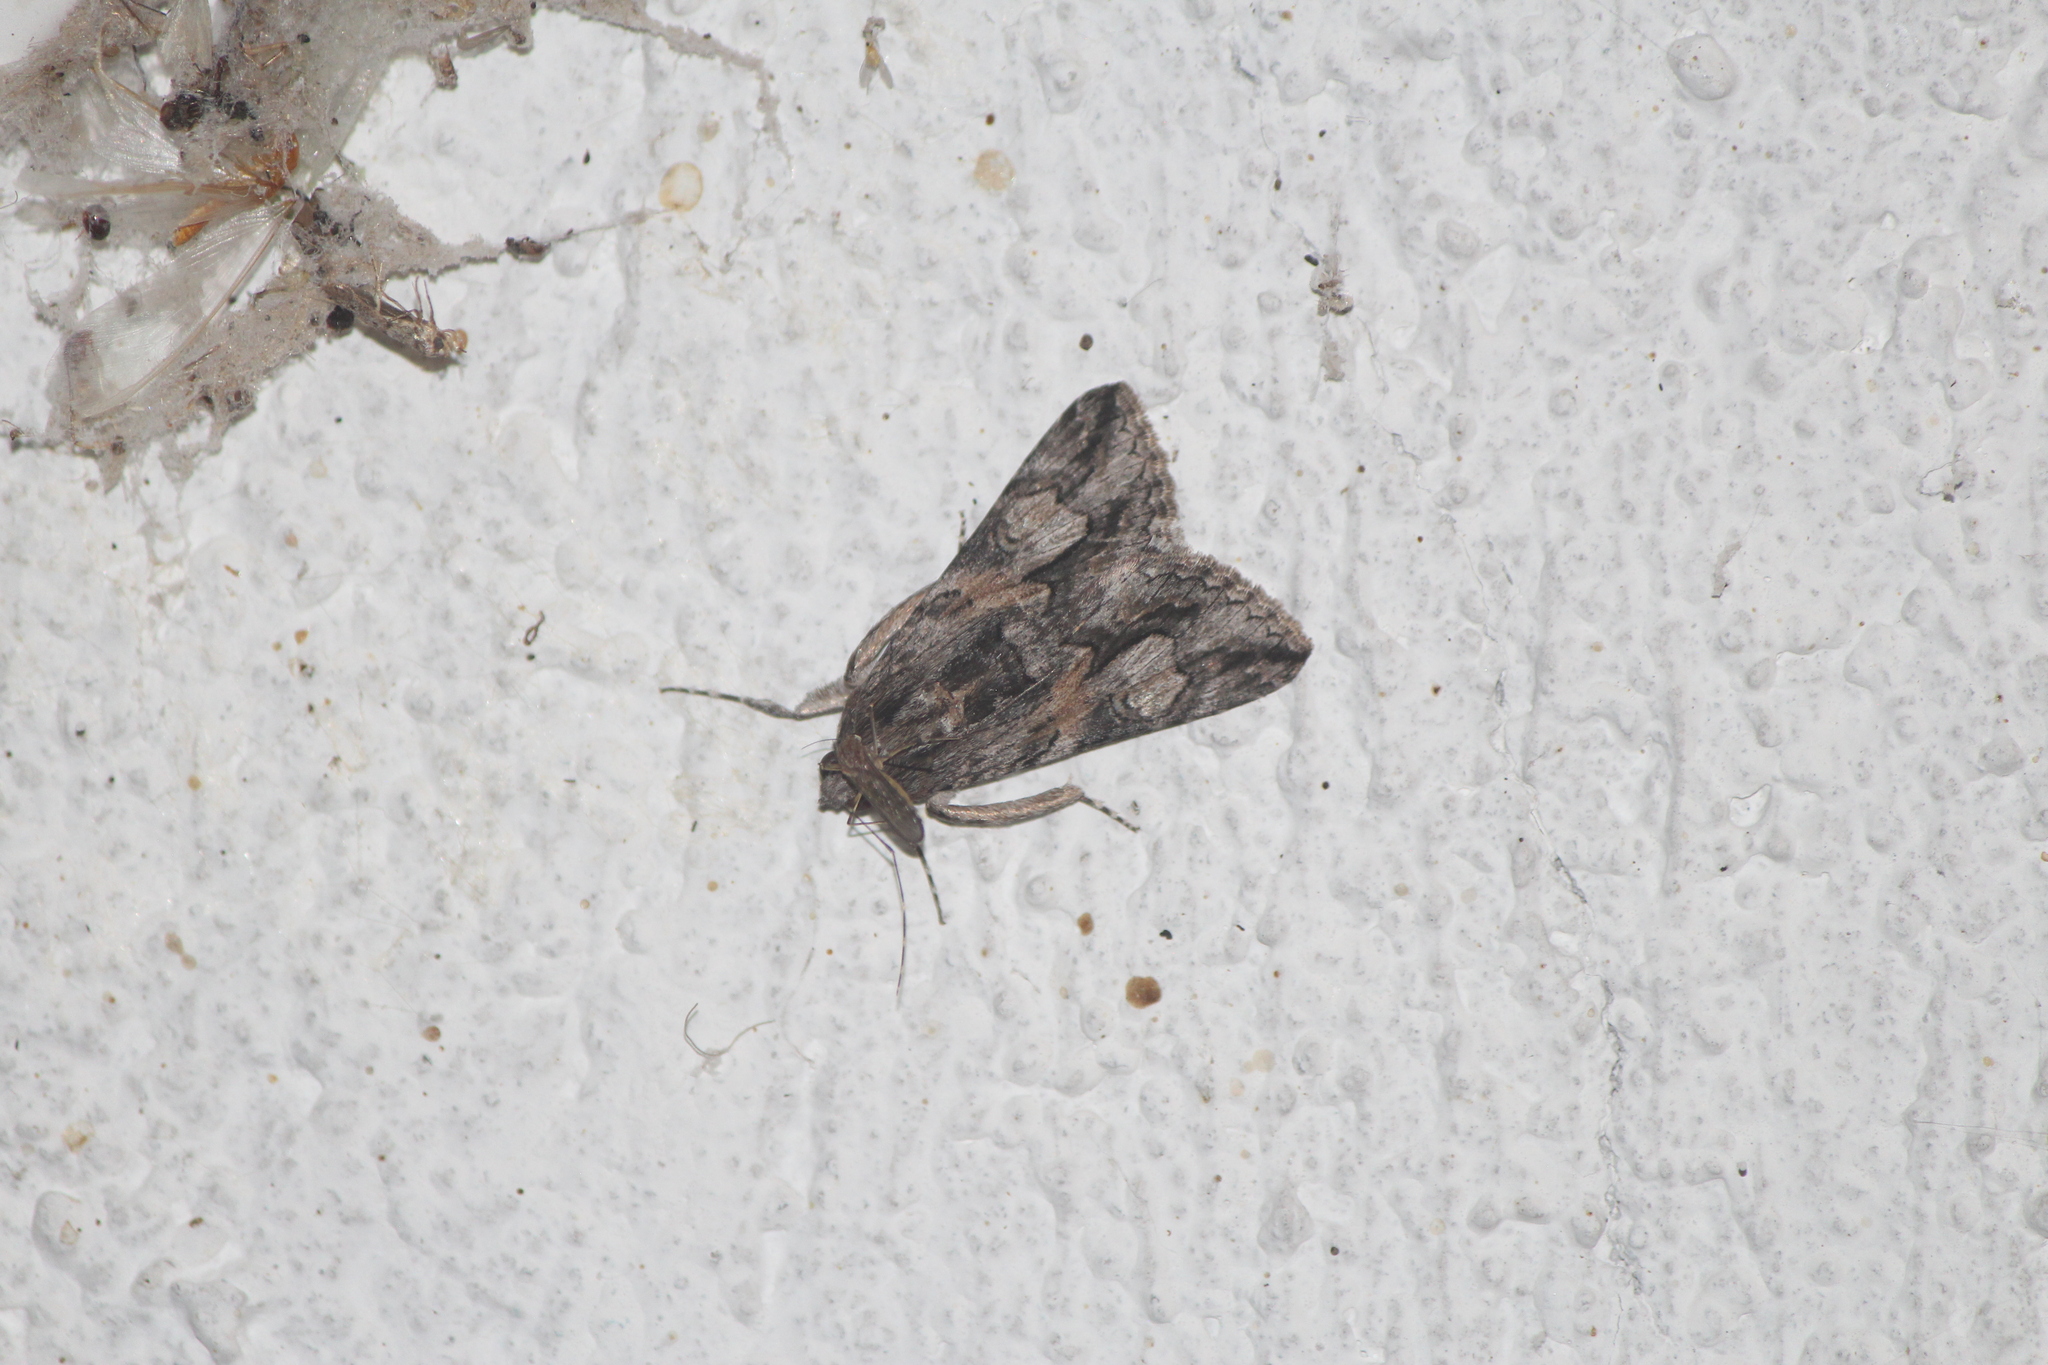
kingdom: Animalia
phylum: Arthropoda
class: Insecta
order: Lepidoptera
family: Erebidae
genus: Melipotis
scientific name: Melipotis jucunda
